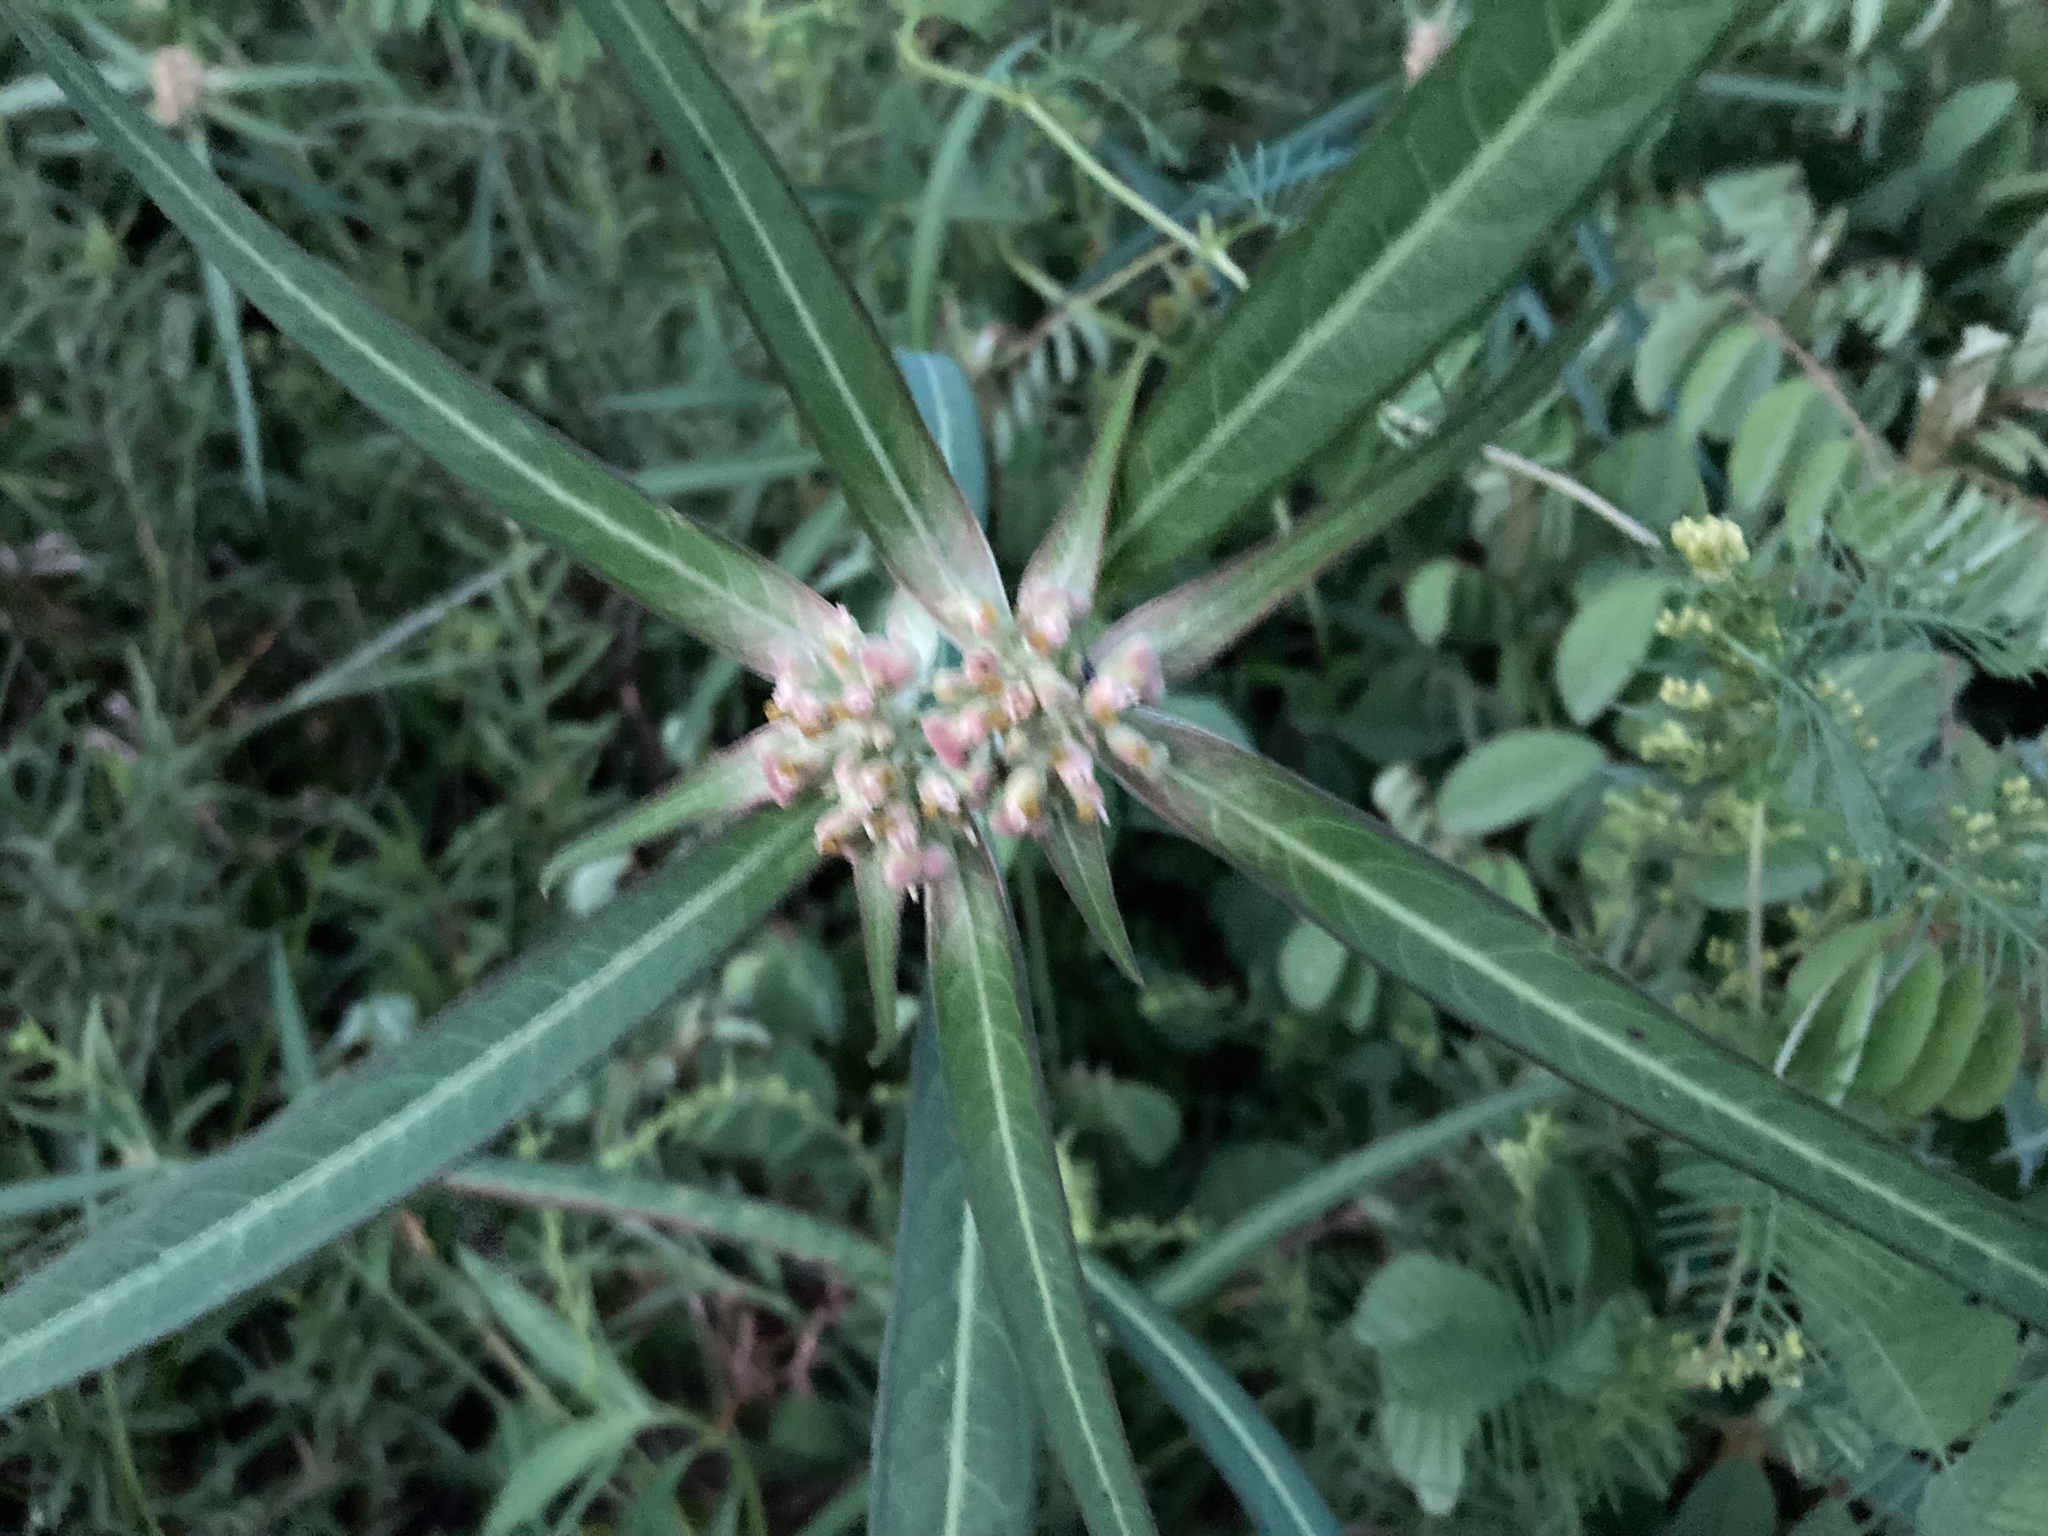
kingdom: Plantae
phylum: Tracheophyta
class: Magnoliopsida
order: Malpighiales
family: Euphorbiaceae
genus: Euphorbia
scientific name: Euphorbia heterophylla
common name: Mexican fireplant
